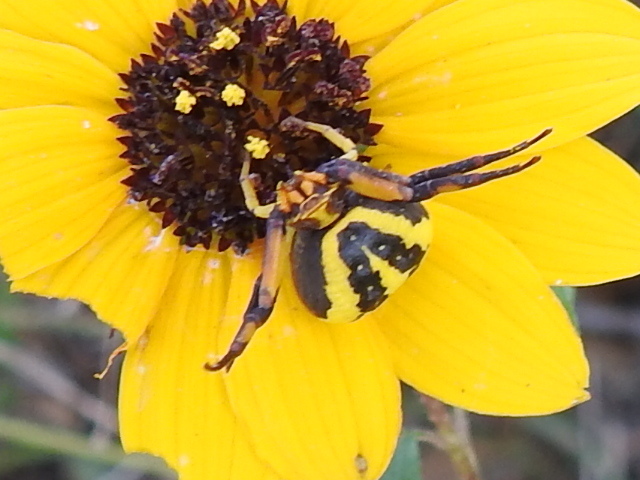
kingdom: Animalia
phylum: Arthropoda
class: Arachnida
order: Araneae
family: Thomisidae
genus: Misumenoides
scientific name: Misumenoides formosipes
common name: White-banded crab spider
